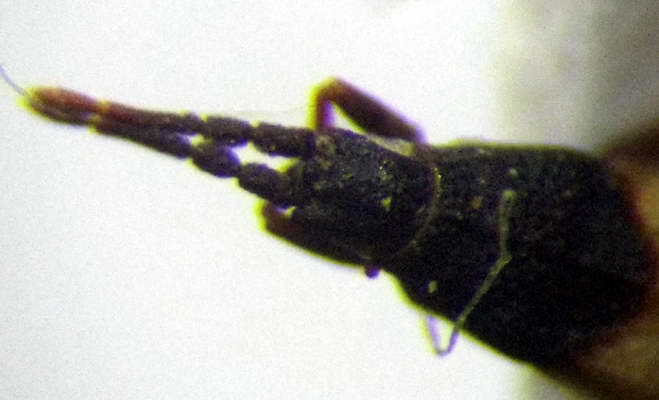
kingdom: Animalia
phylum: Arthropoda
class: Insecta
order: Hemiptera
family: Tingidae
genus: Agramma
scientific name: Agramma blandulum
